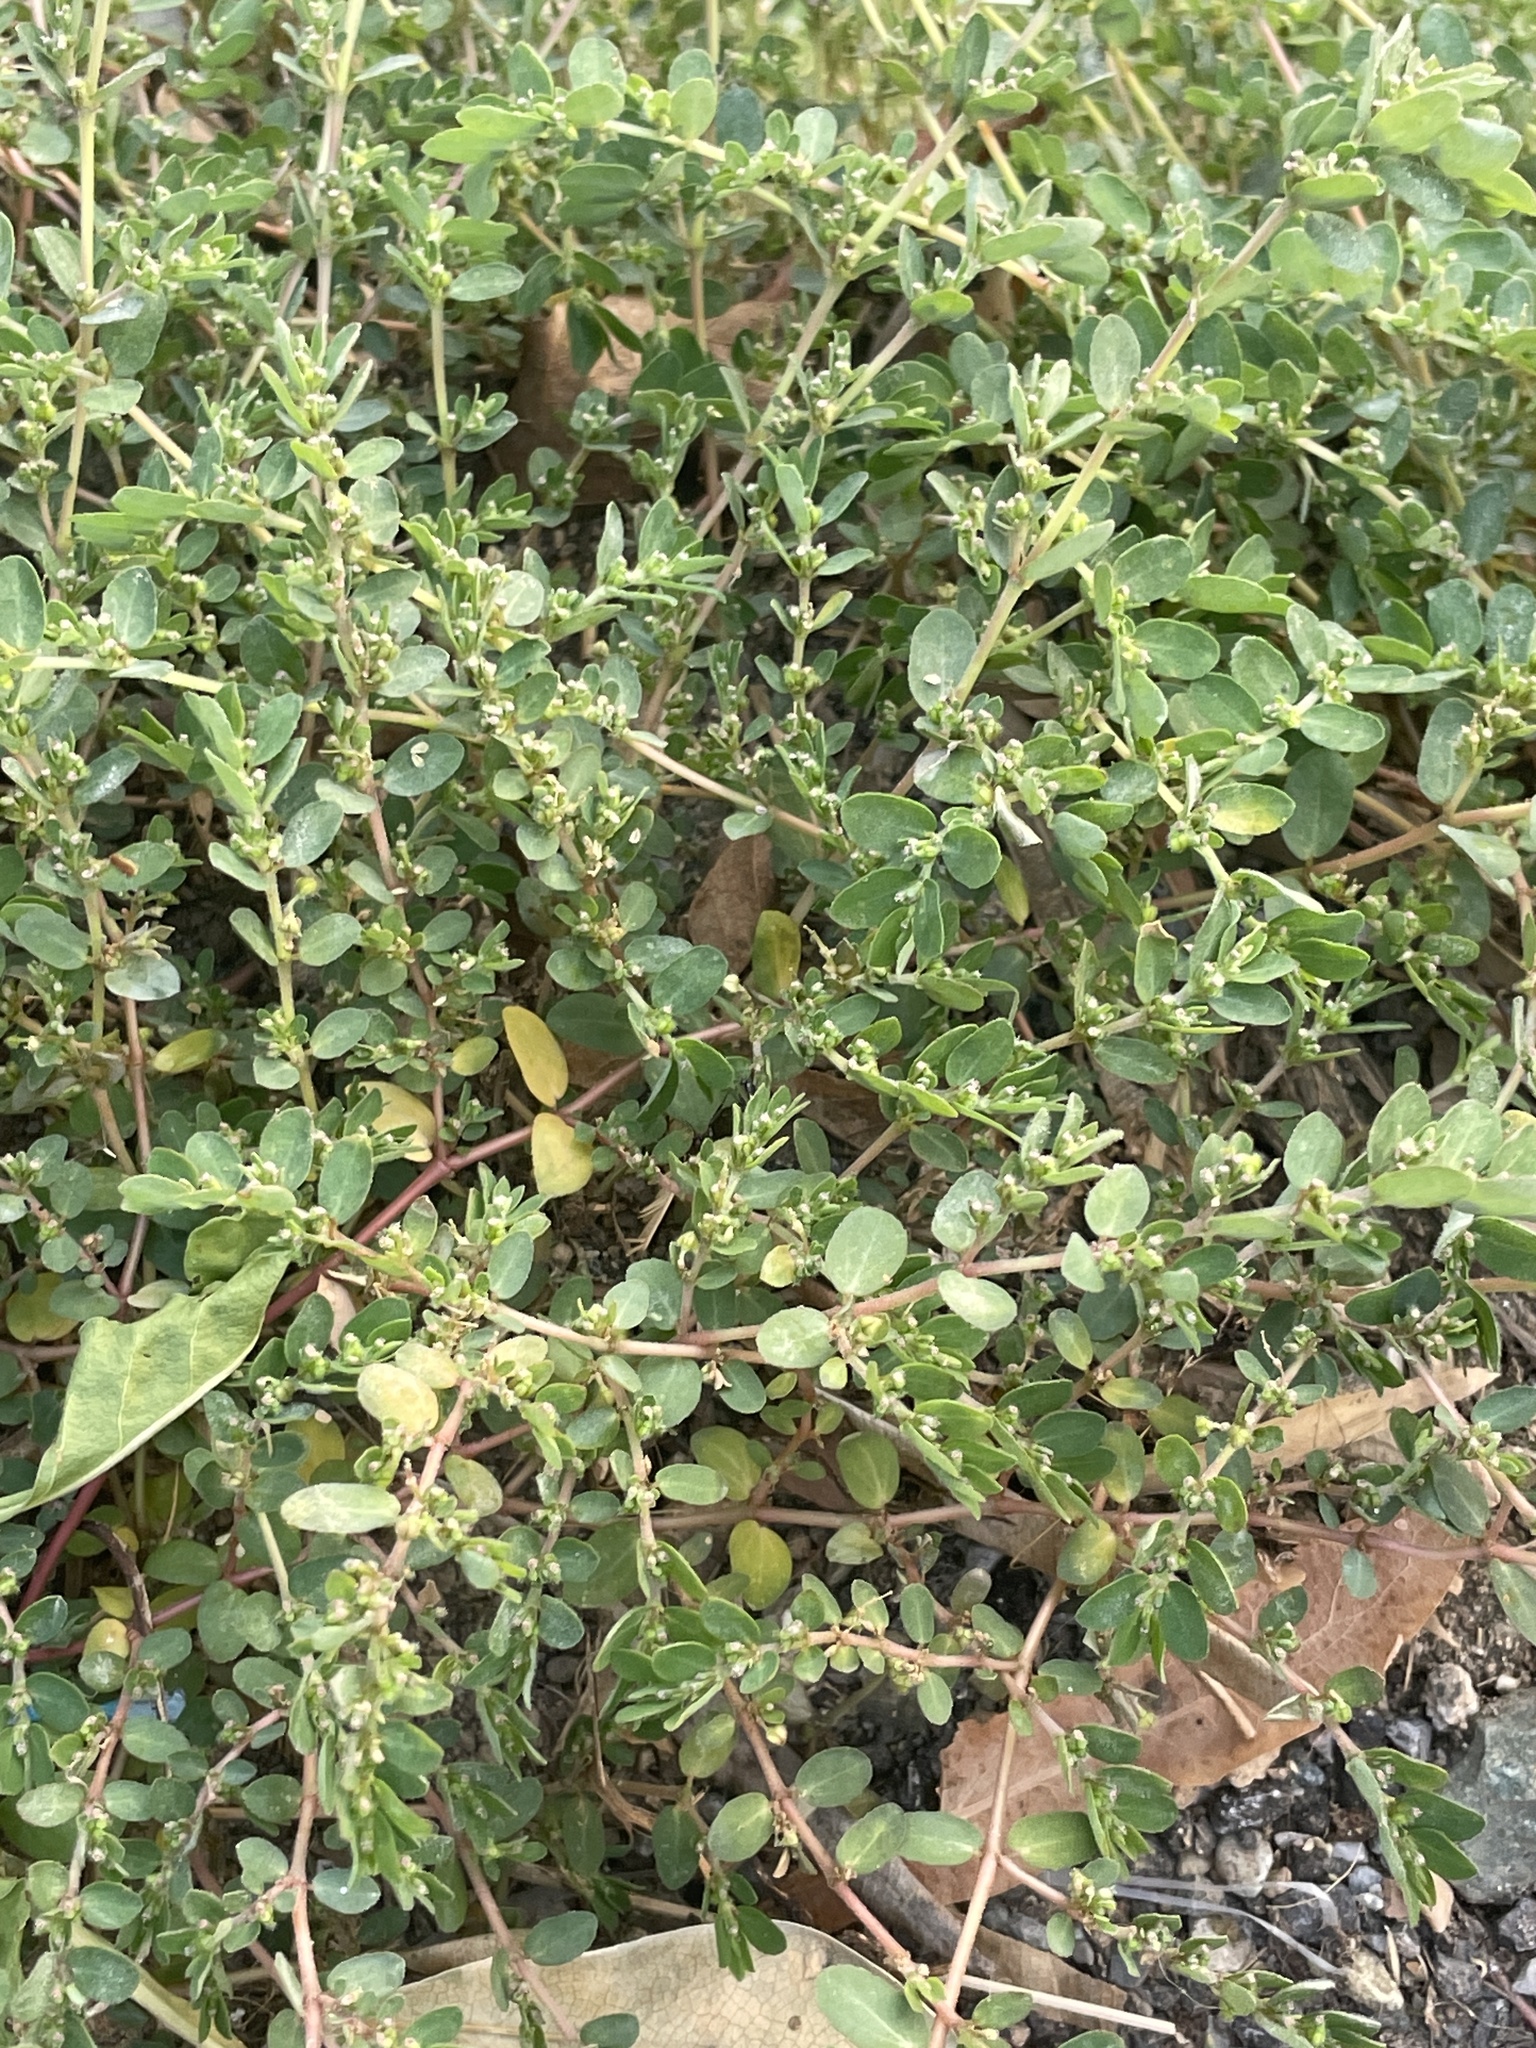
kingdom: Plantae
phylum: Tracheophyta
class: Magnoliopsida
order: Malpighiales
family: Euphorbiaceae
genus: Euphorbia
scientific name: Euphorbia prostrata
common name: Prostrate sandmat
